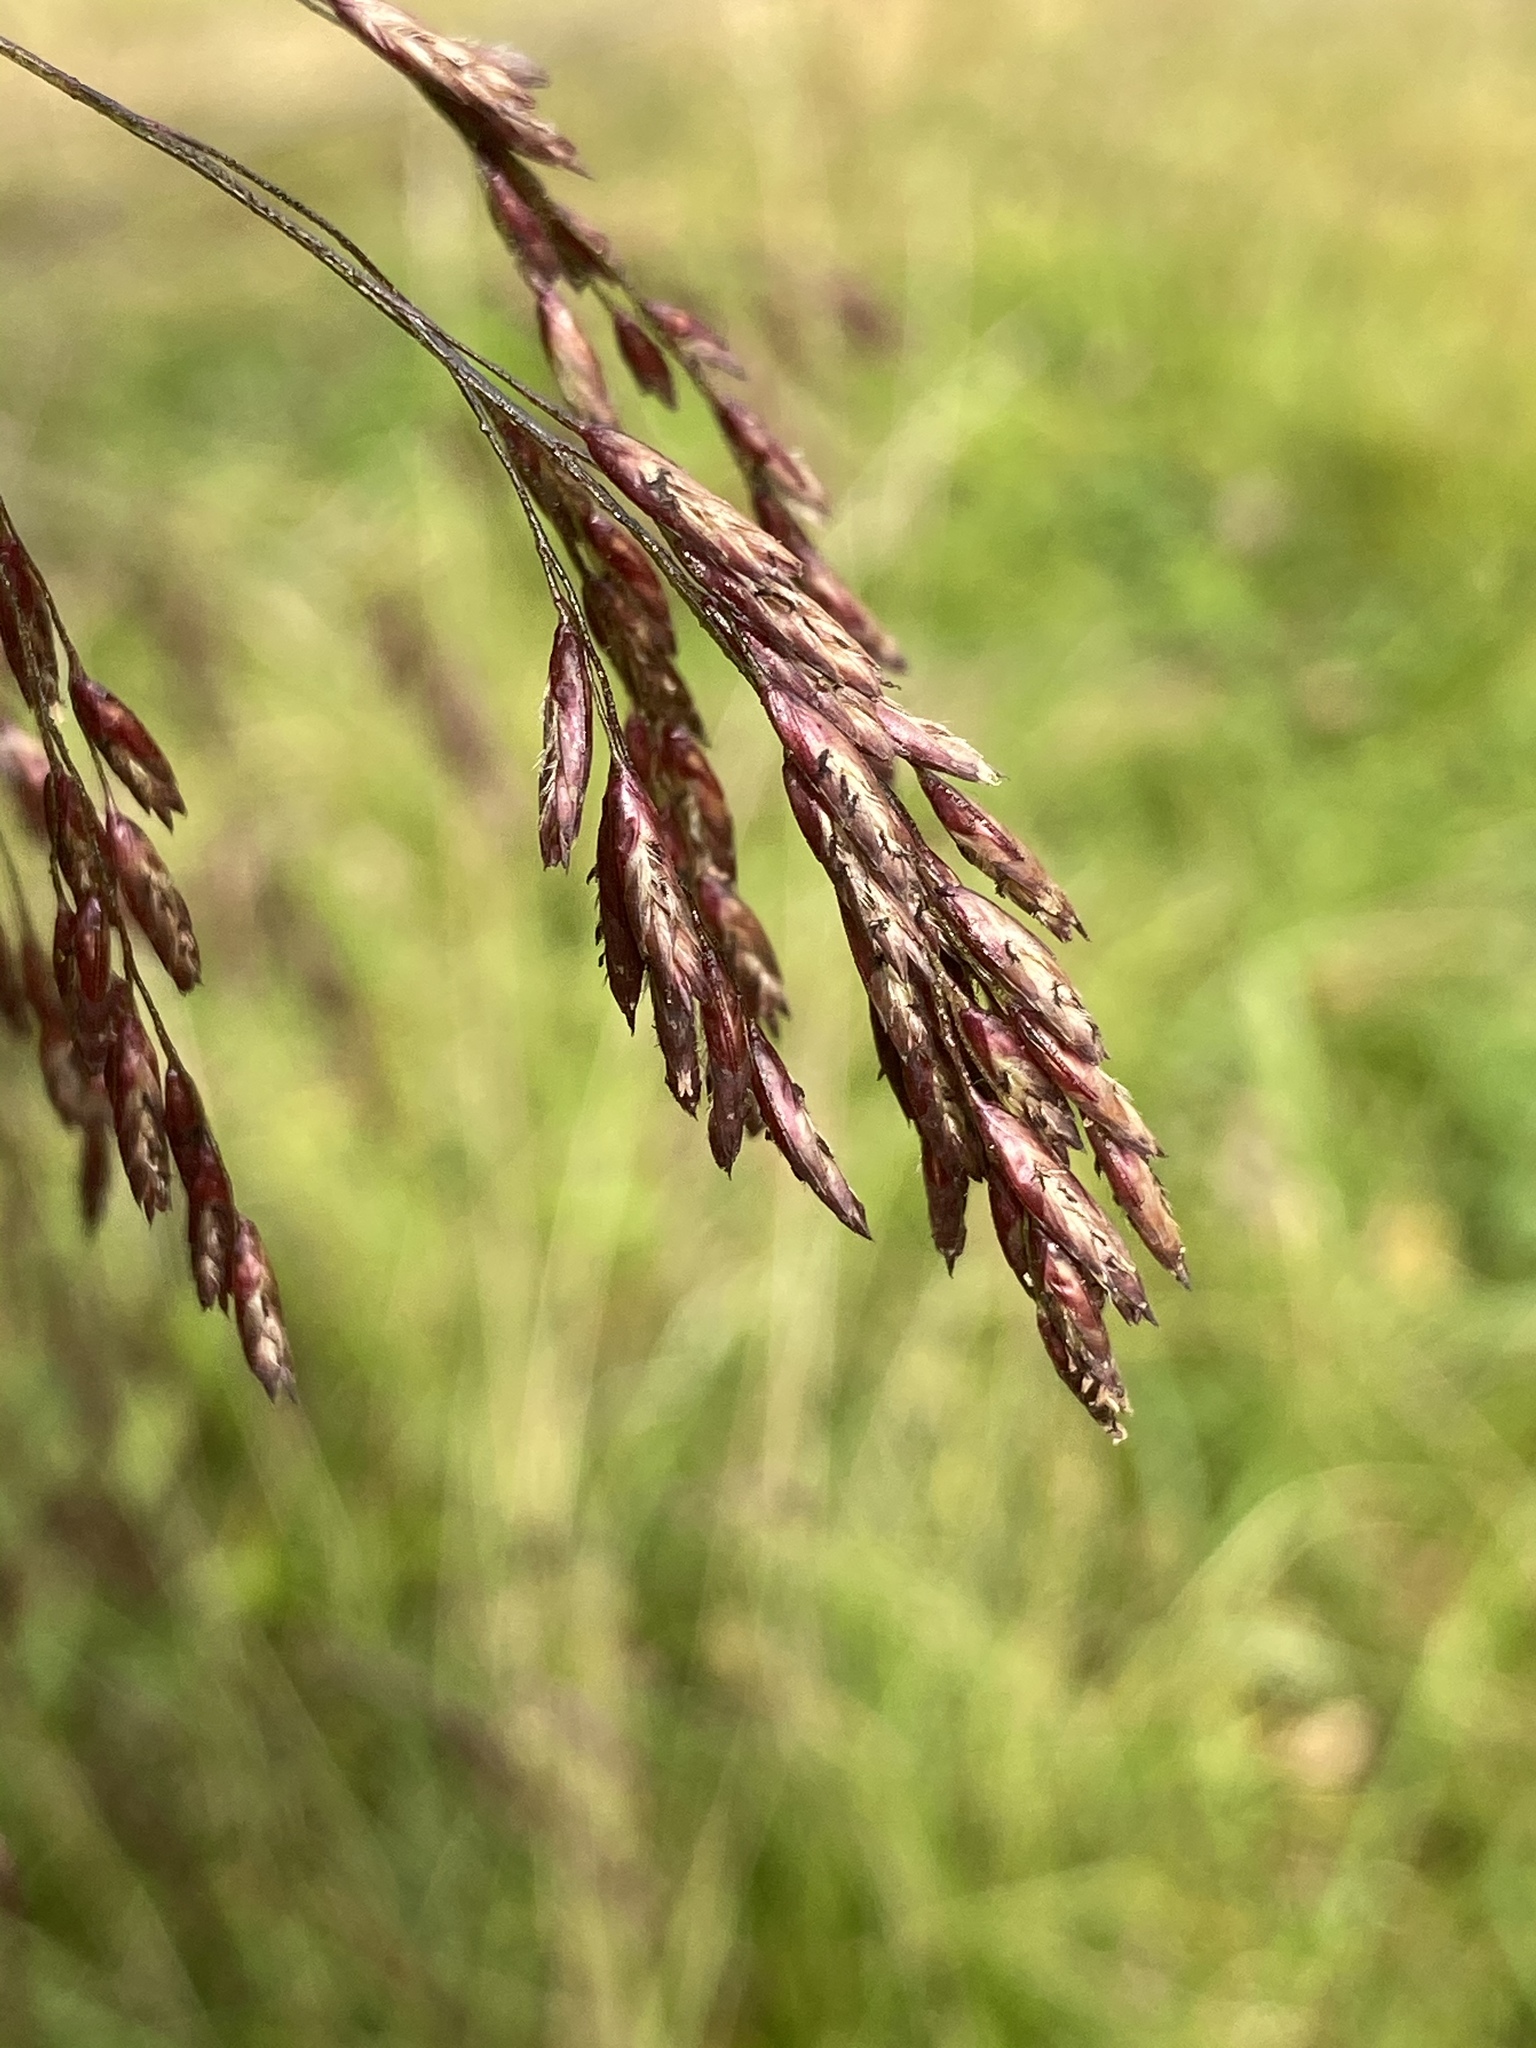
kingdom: Plantae
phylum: Tracheophyta
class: Liliopsida
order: Poales
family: Poaceae
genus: Tridens
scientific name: Tridens flavus
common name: Purpletop
